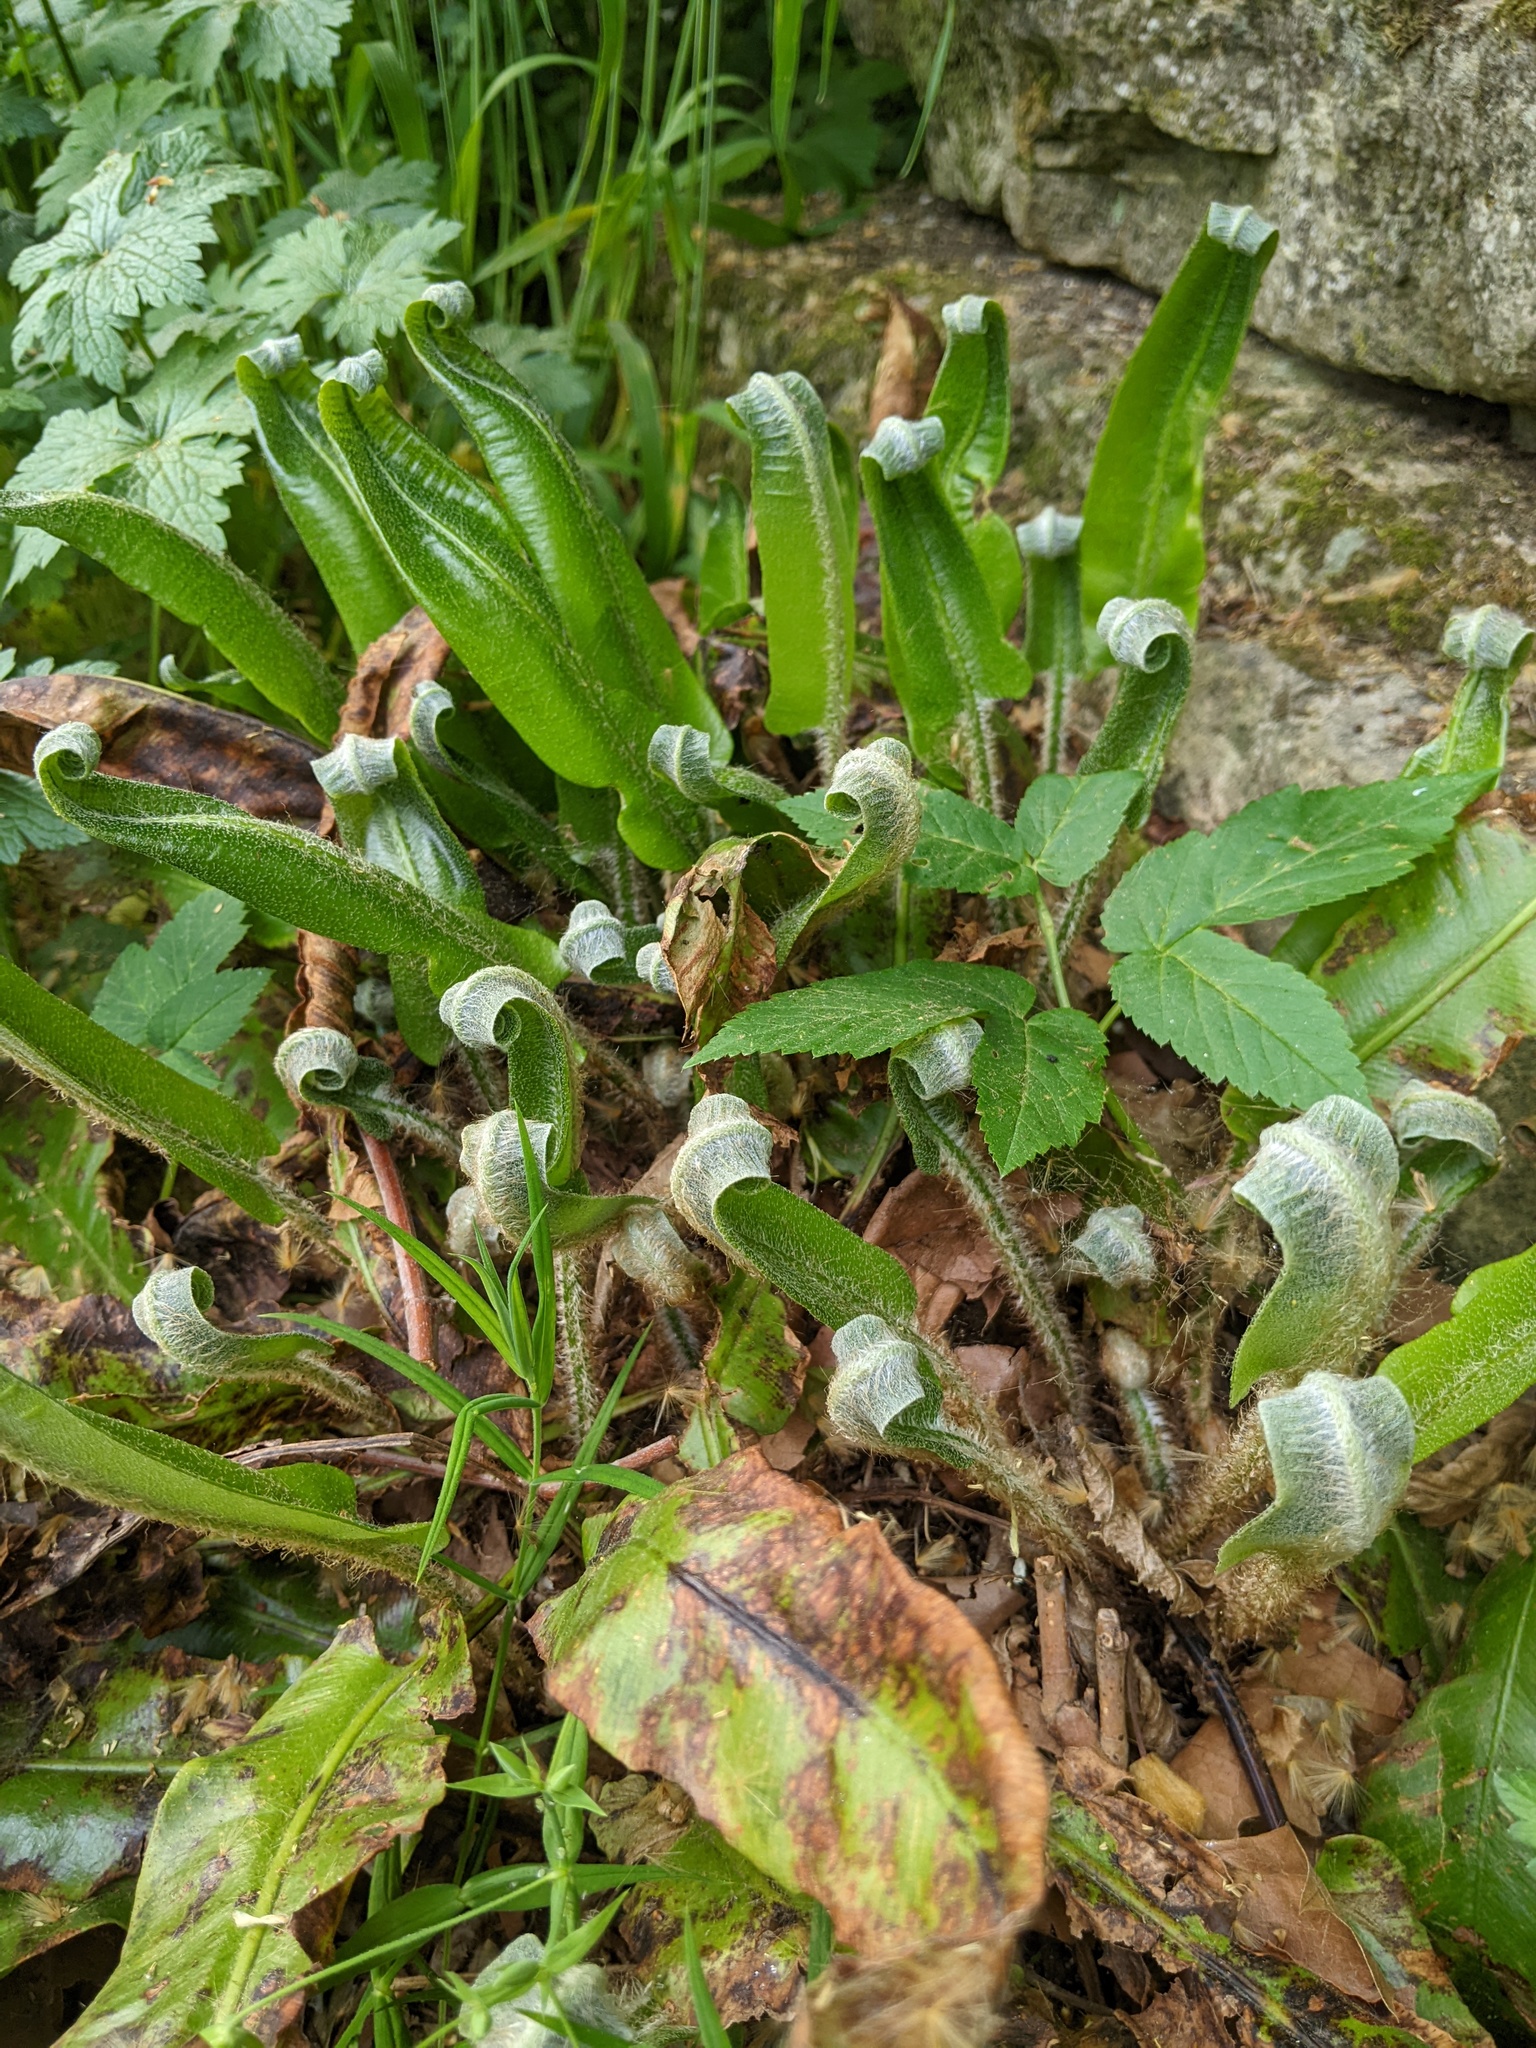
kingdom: Plantae
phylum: Tracheophyta
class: Polypodiopsida
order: Polypodiales
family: Aspleniaceae
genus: Asplenium
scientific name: Asplenium scolopendrium
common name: Hart's-tongue fern
